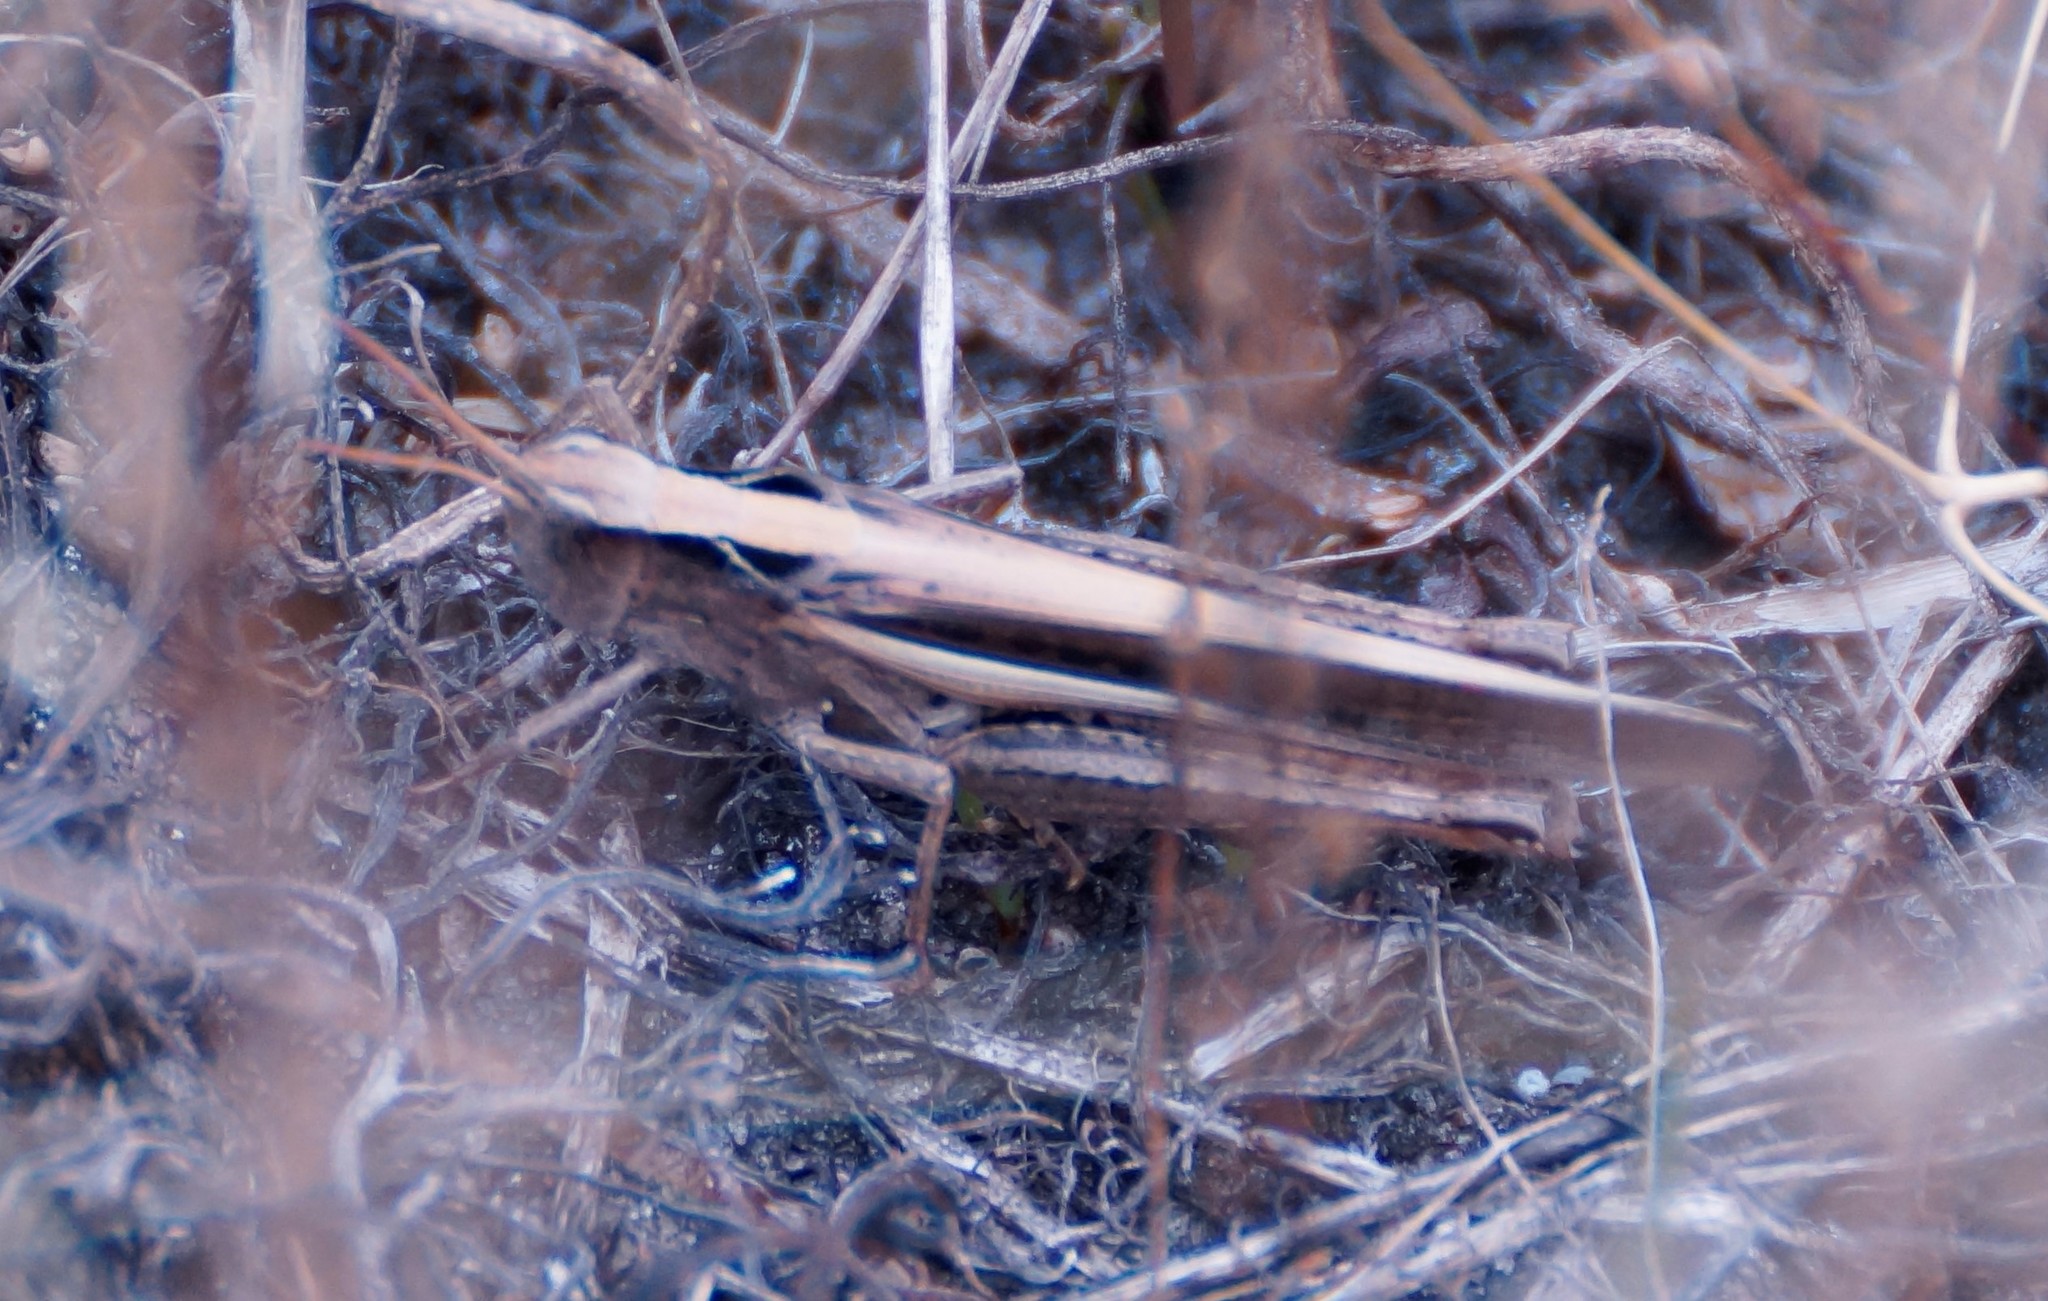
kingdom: Animalia
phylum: Arthropoda
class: Insecta
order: Orthoptera
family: Acrididae
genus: Schizobothrus
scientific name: Schizobothrus flavovittatus
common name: Disappearing grasshopper
